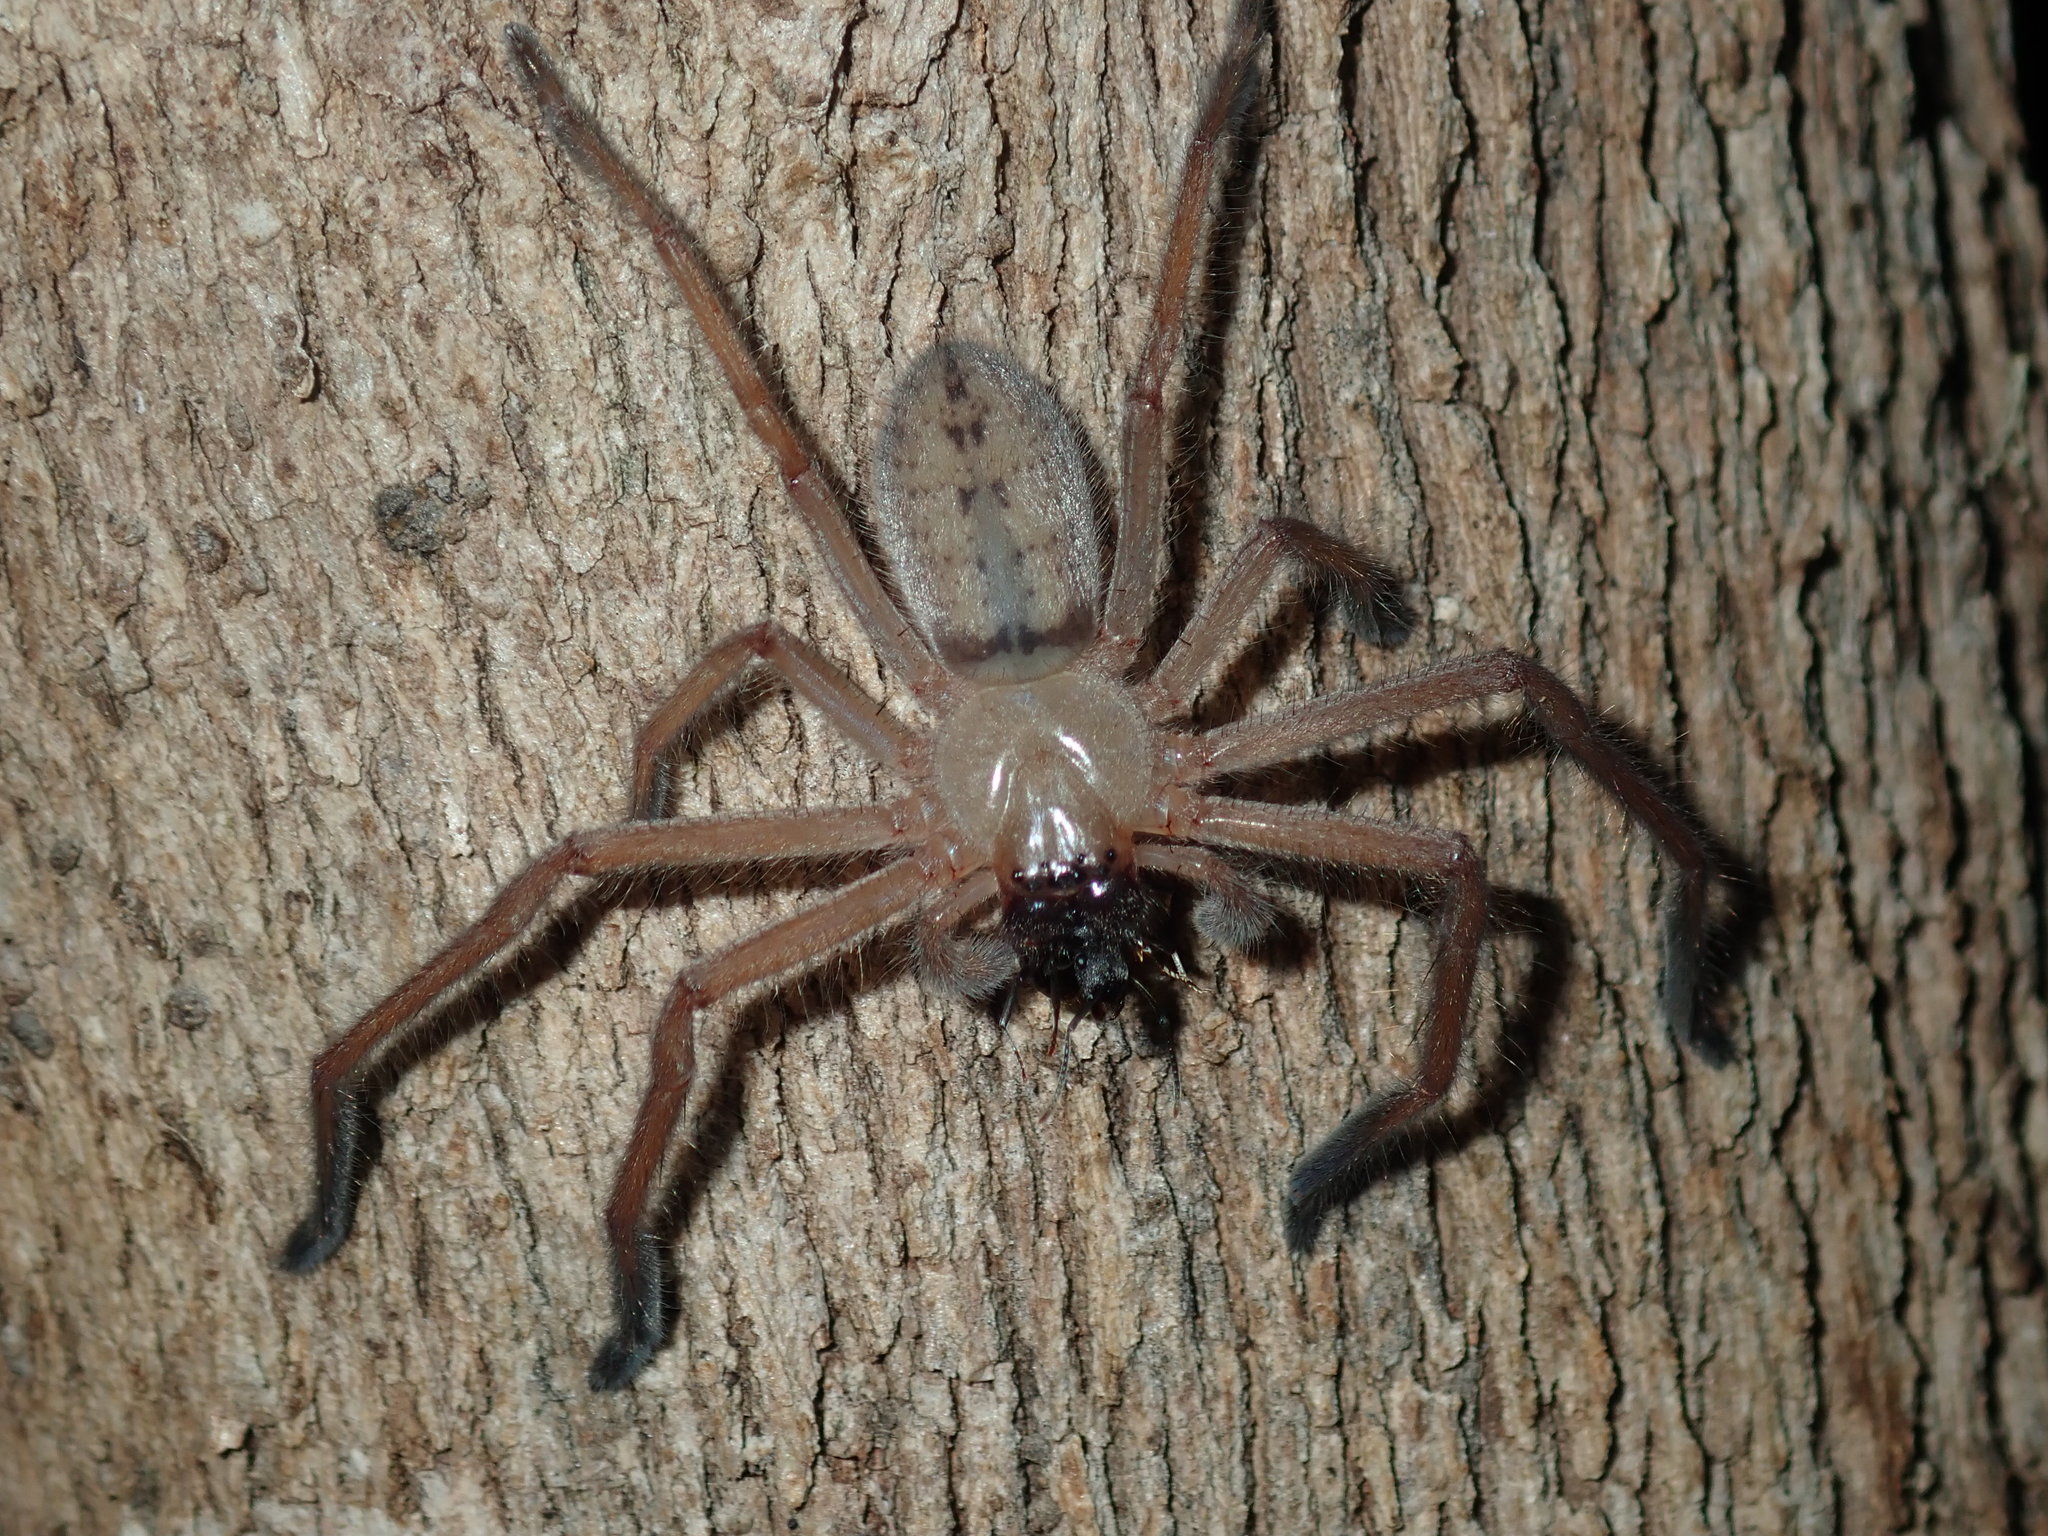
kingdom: Animalia
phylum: Arthropoda
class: Arachnida
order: Araneae
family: Sparassidae
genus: Delena
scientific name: Delena cancerides
